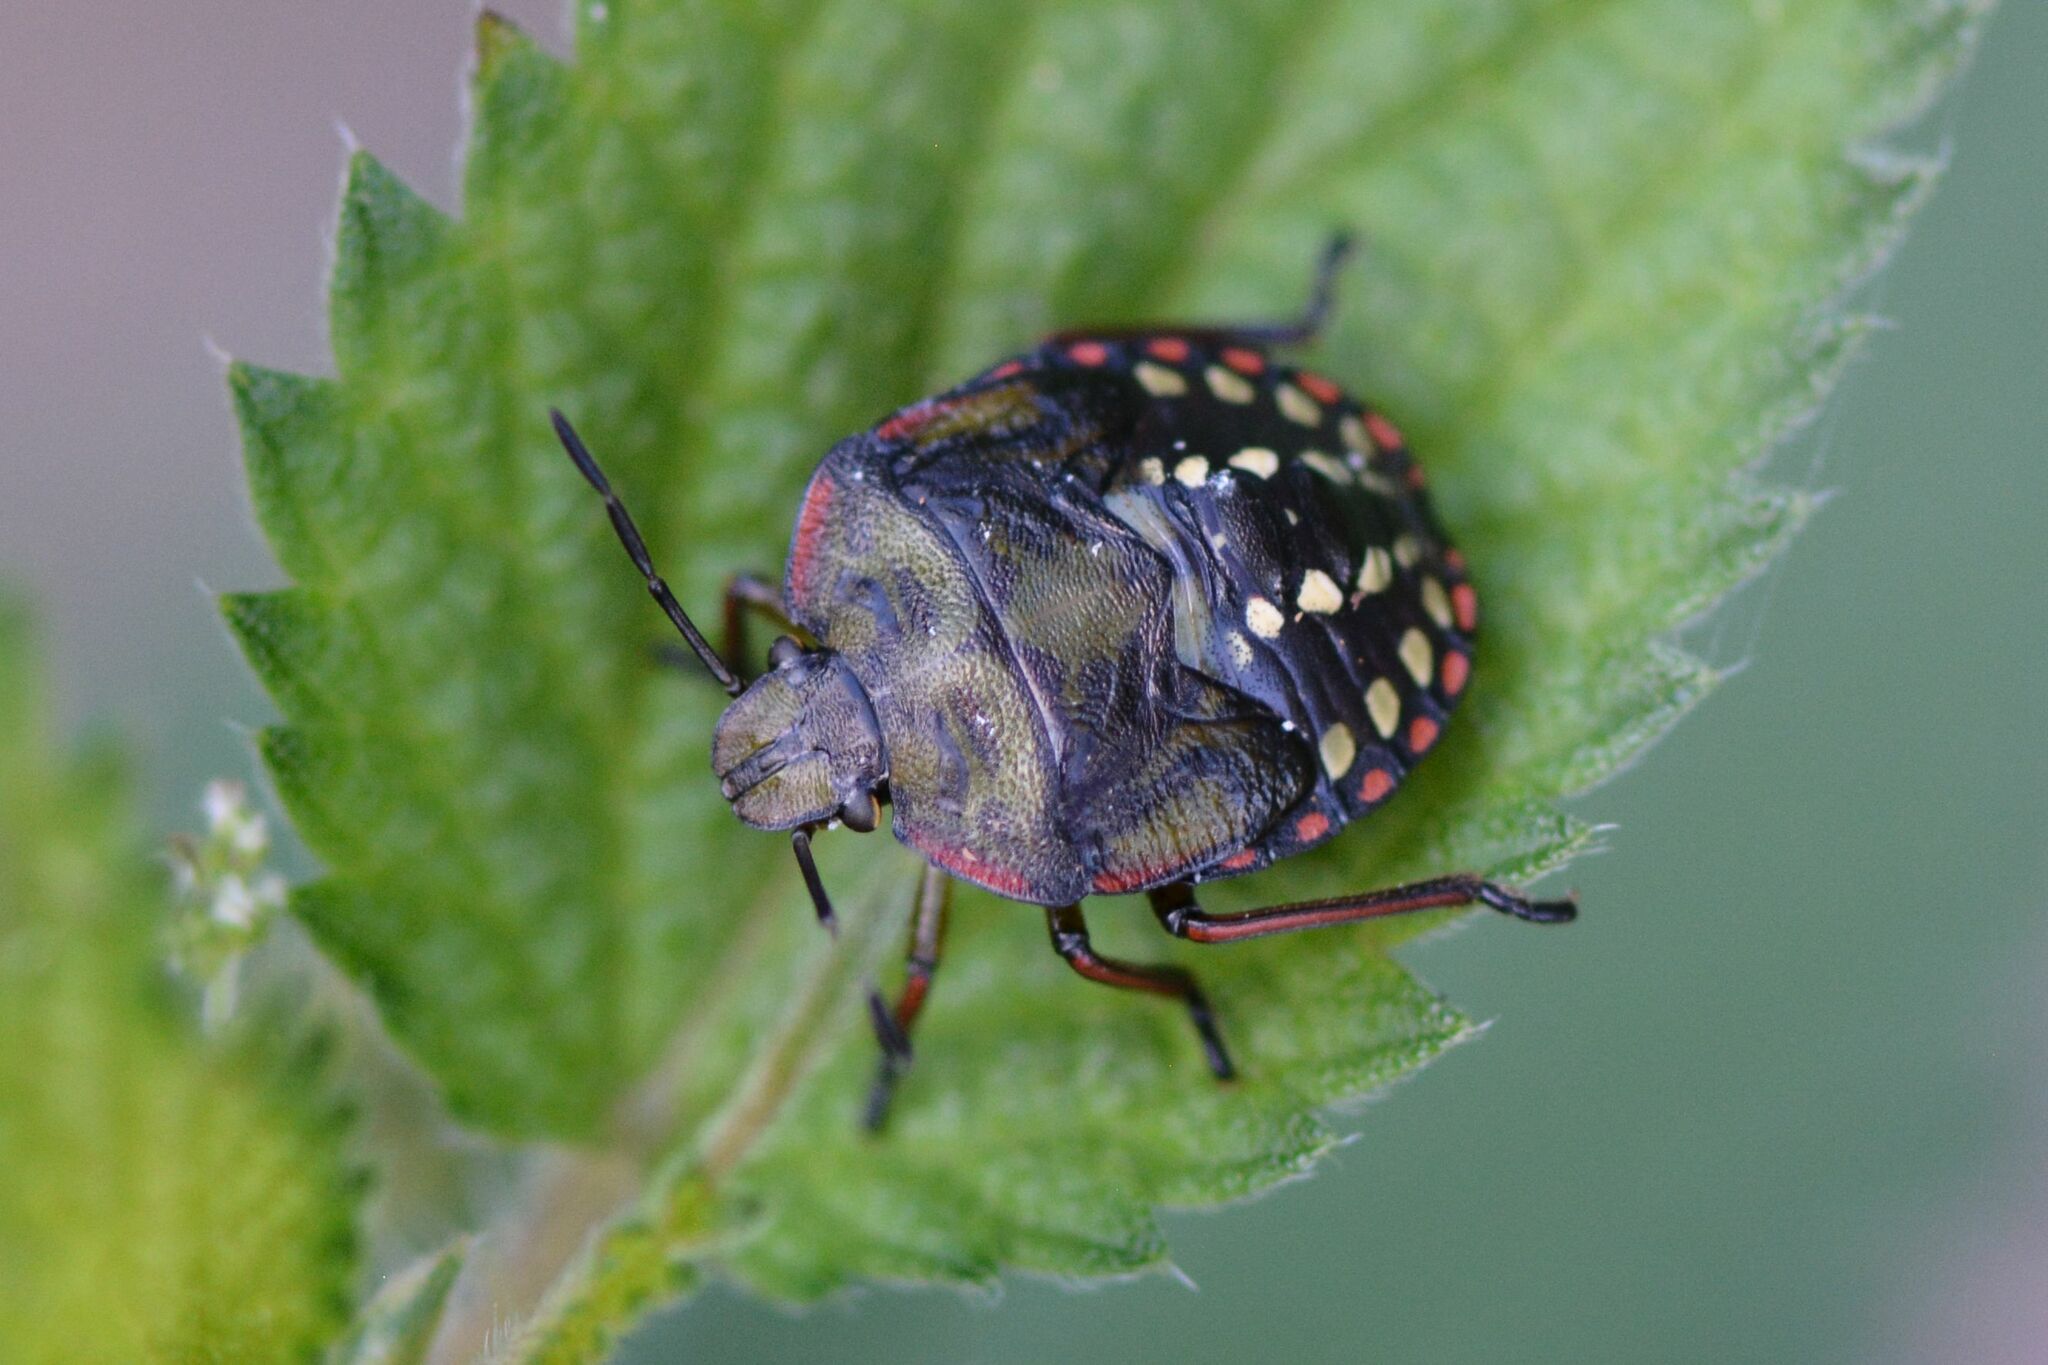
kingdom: Animalia
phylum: Arthropoda
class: Insecta
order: Hemiptera
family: Pentatomidae
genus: Nezara
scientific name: Nezara viridula
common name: Southern green stink bug
